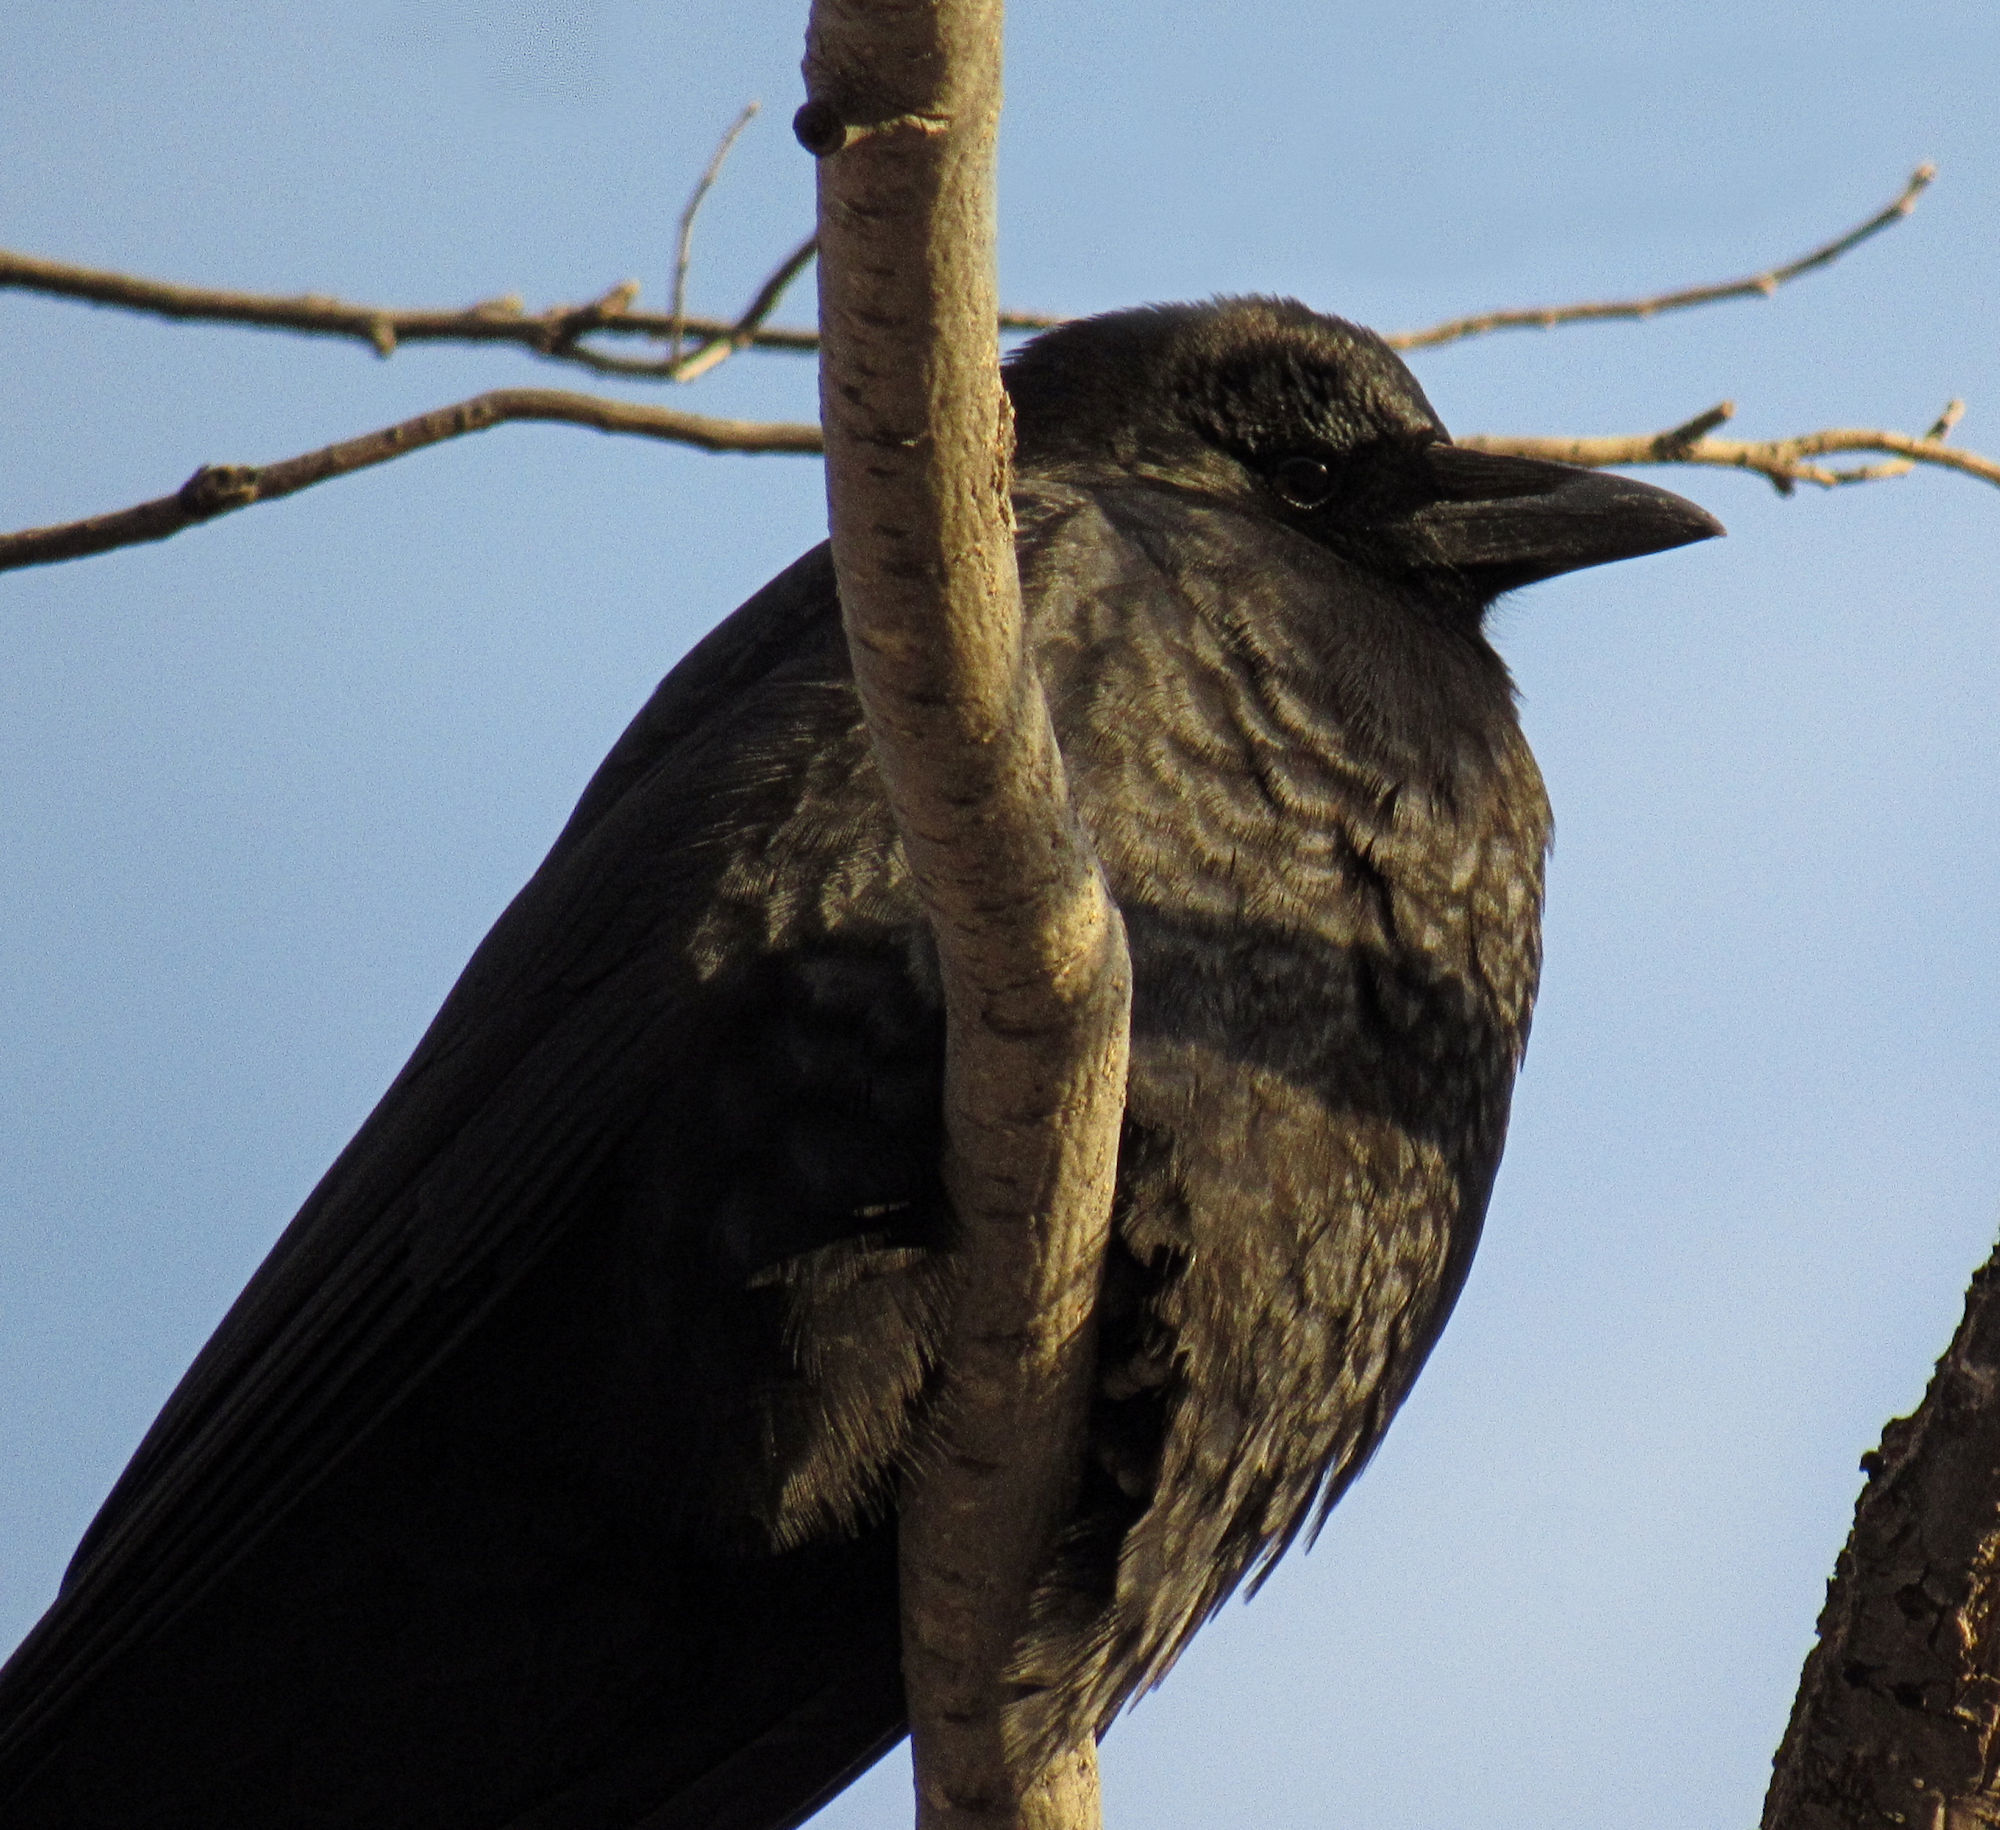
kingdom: Animalia
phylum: Chordata
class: Aves
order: Passeriformes
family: Corvidae
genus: Corvus
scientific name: Corvus brachyrhynchos
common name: American crow
